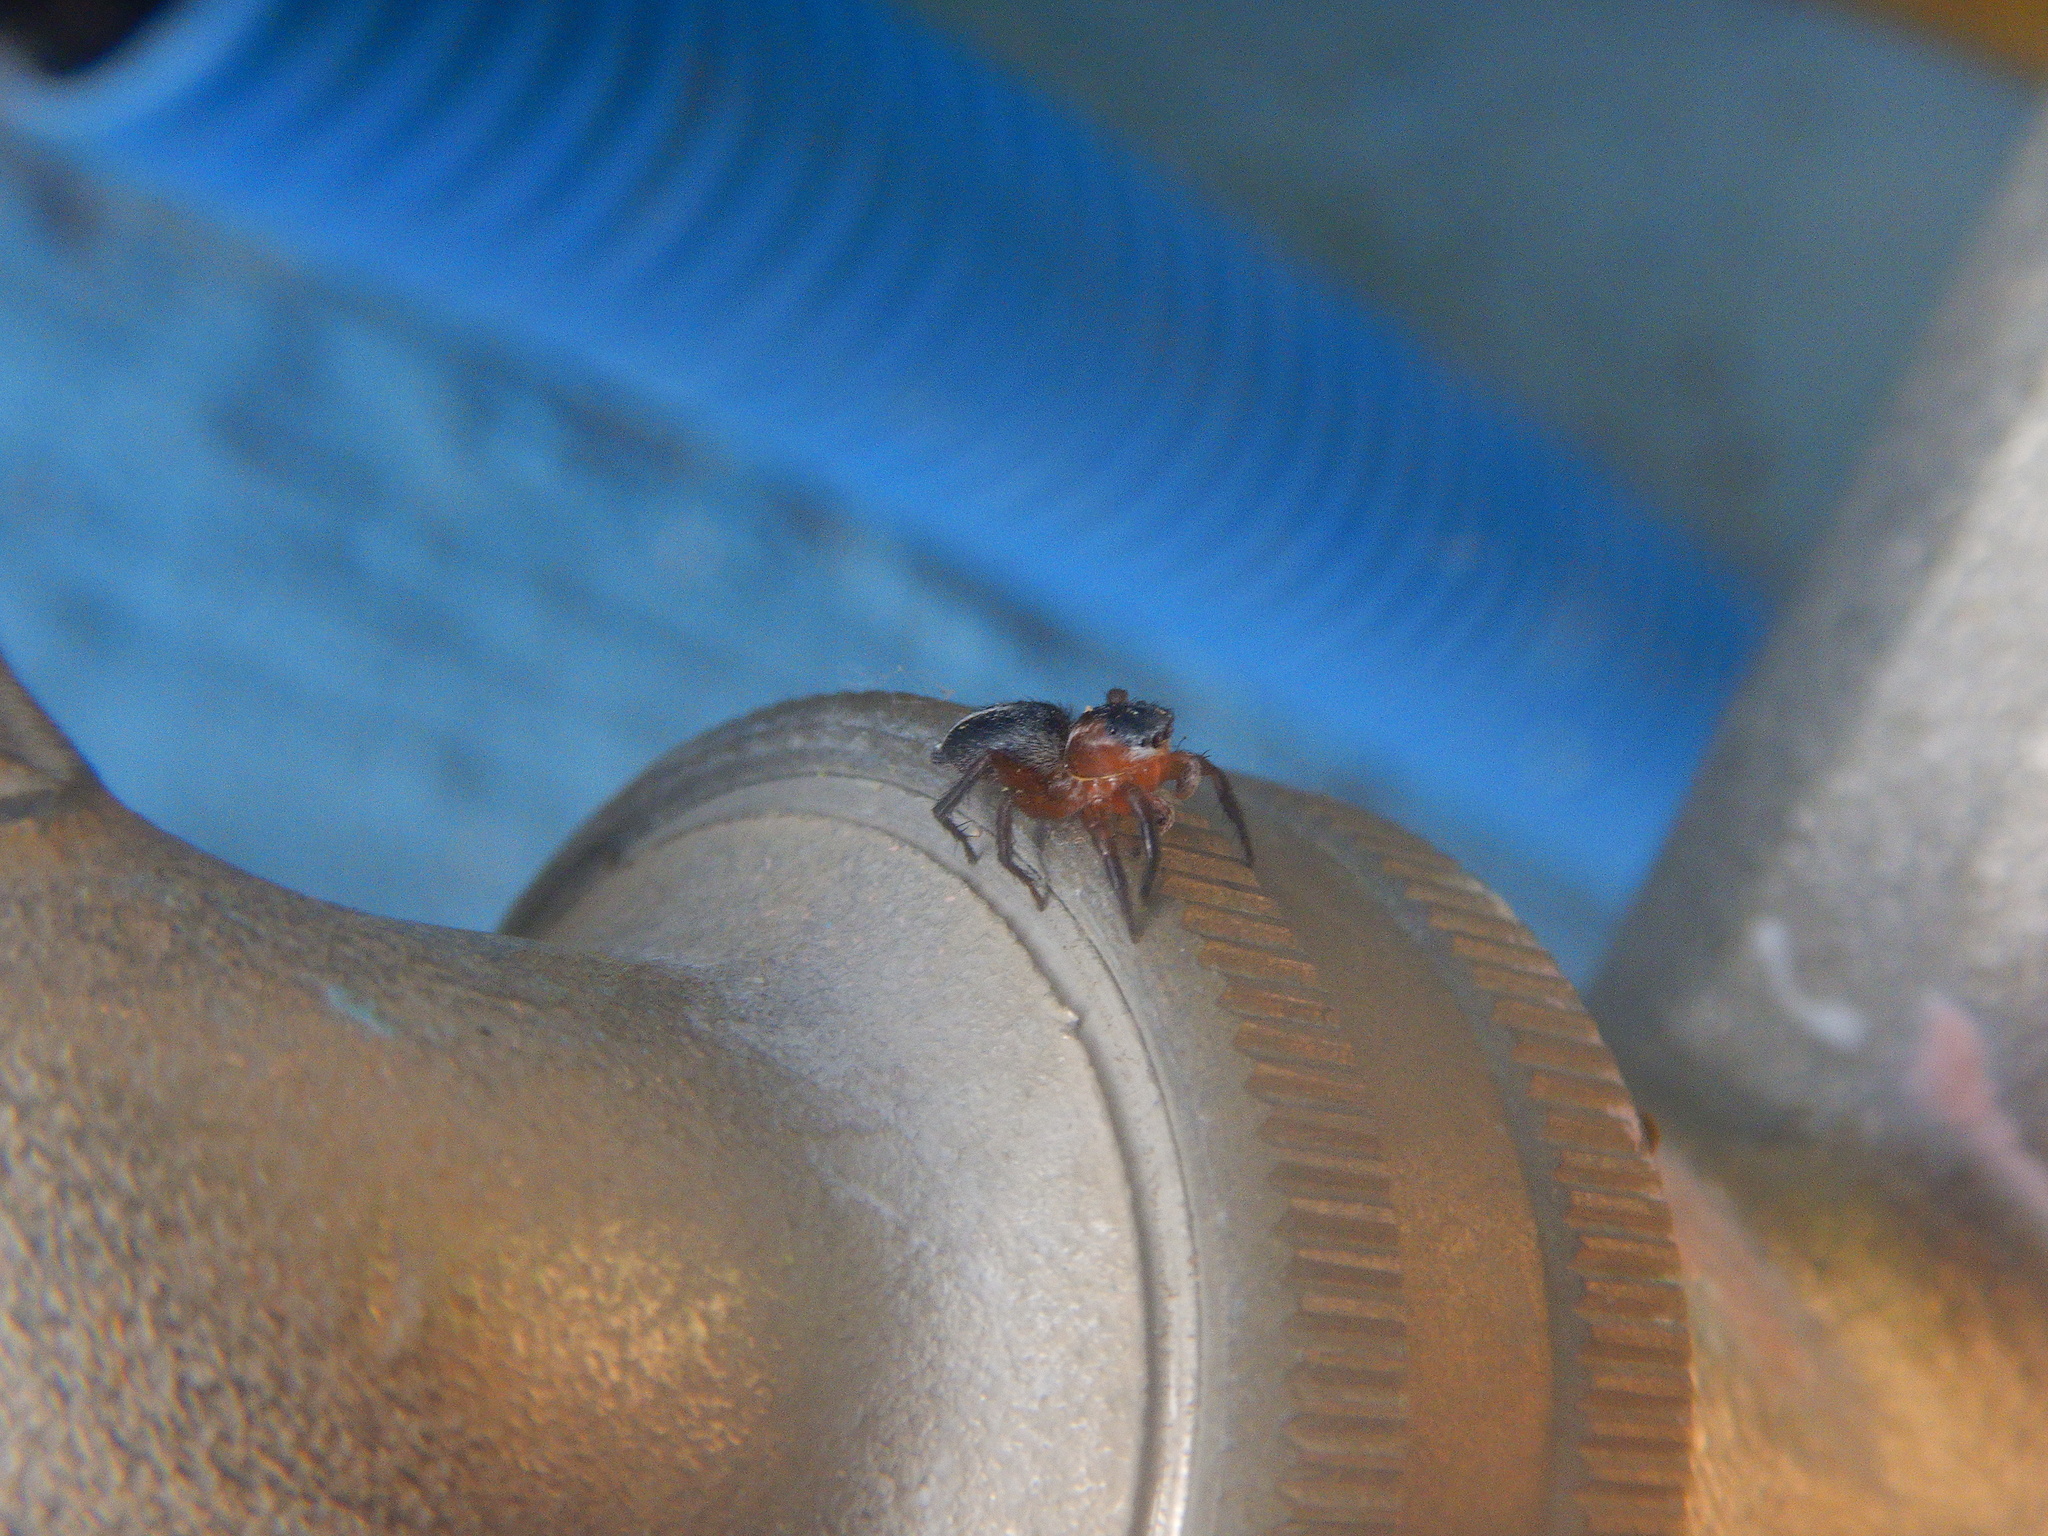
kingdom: Animalia
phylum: Arthropoda
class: Arachnida
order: Araneae
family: Salticidae
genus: Phlegra
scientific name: Phlegra fasciata
